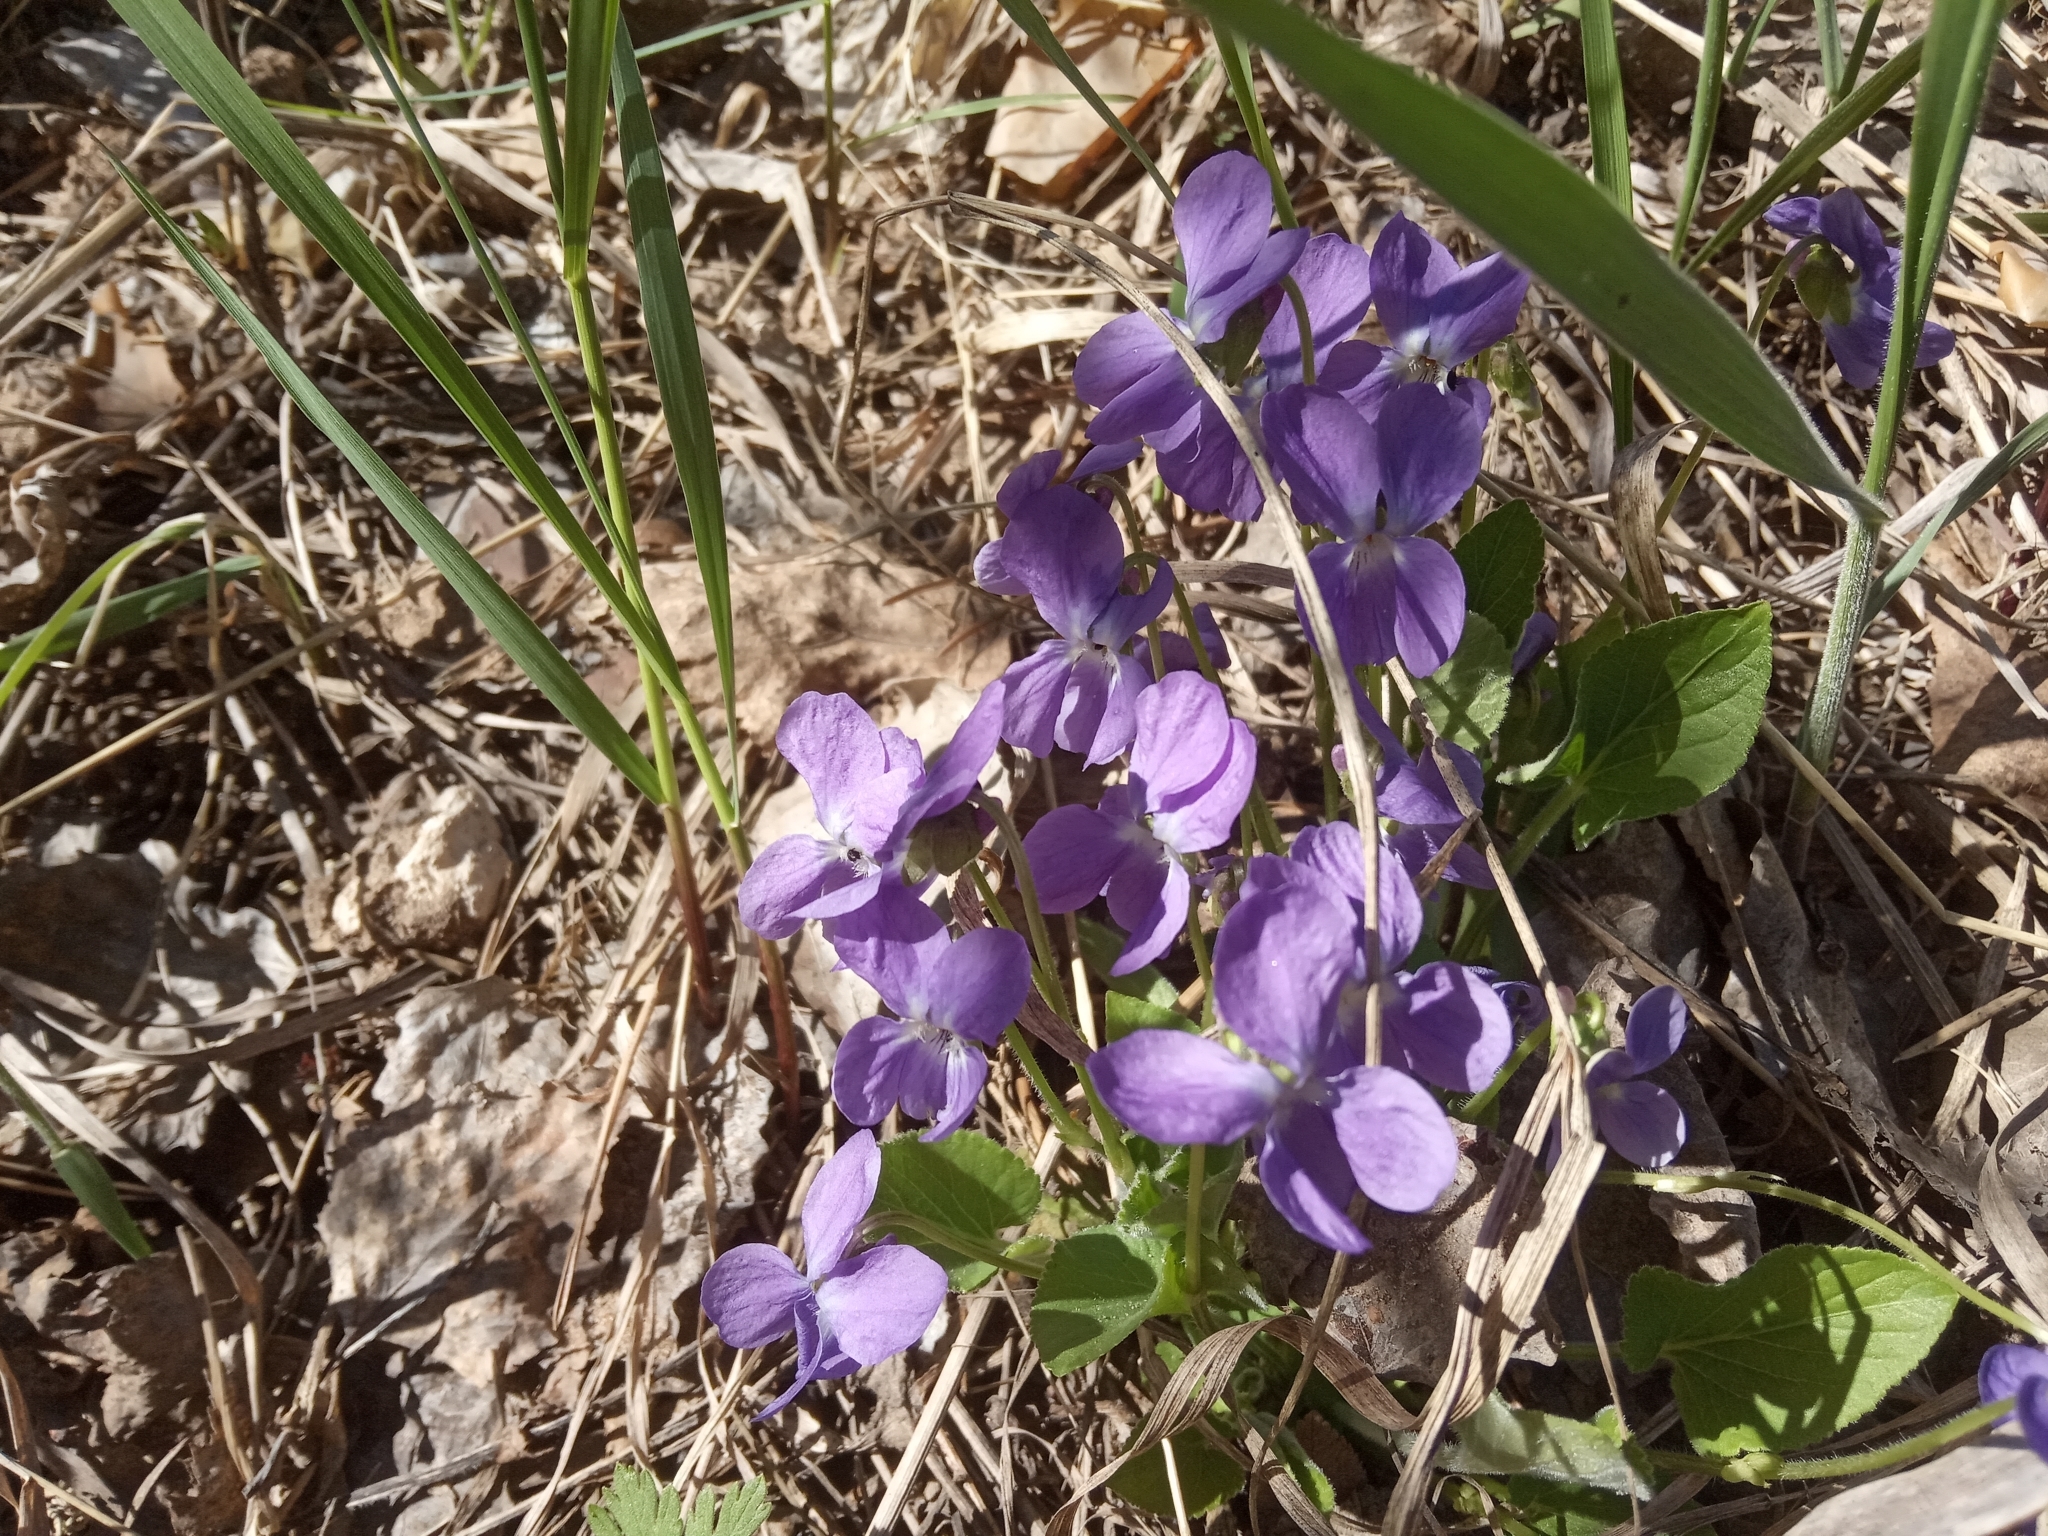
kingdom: Plantae
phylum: Tracheophyta
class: Magnoliopsida
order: Malpighiales
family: Violaceae
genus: Viola
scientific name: Viola hirta
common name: Hairy violet
